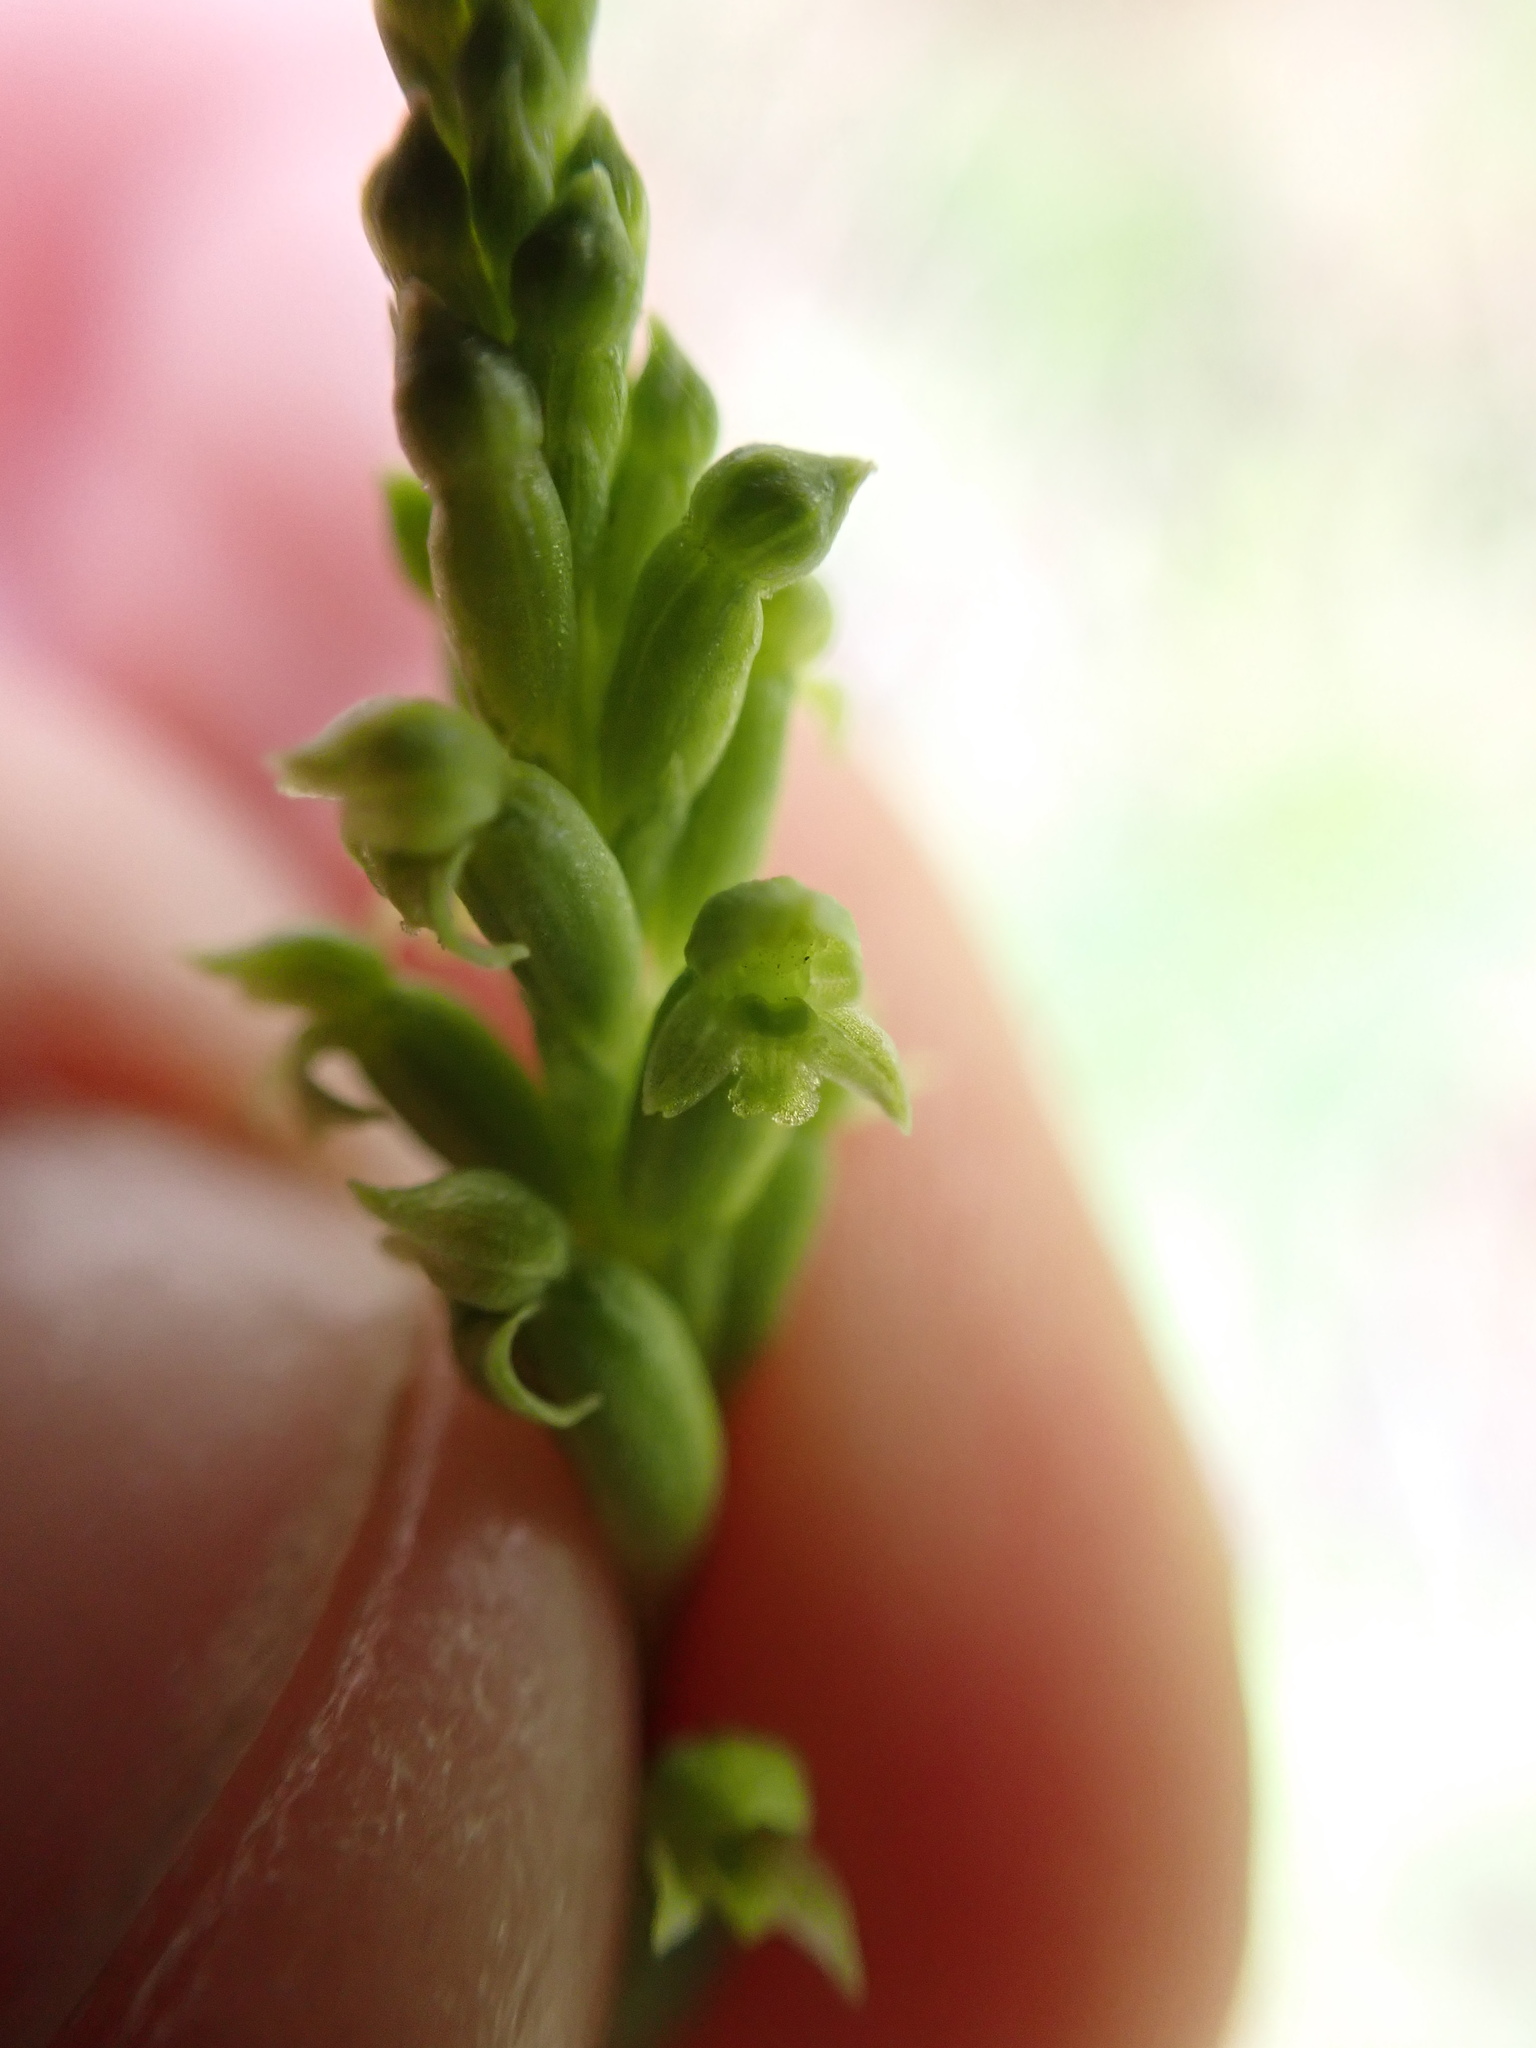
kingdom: Plantae
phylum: Tracheophyta
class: Liliopsida
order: Asparagales
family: Orchidaceae
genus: Microtis
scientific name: Microtis unifolia
